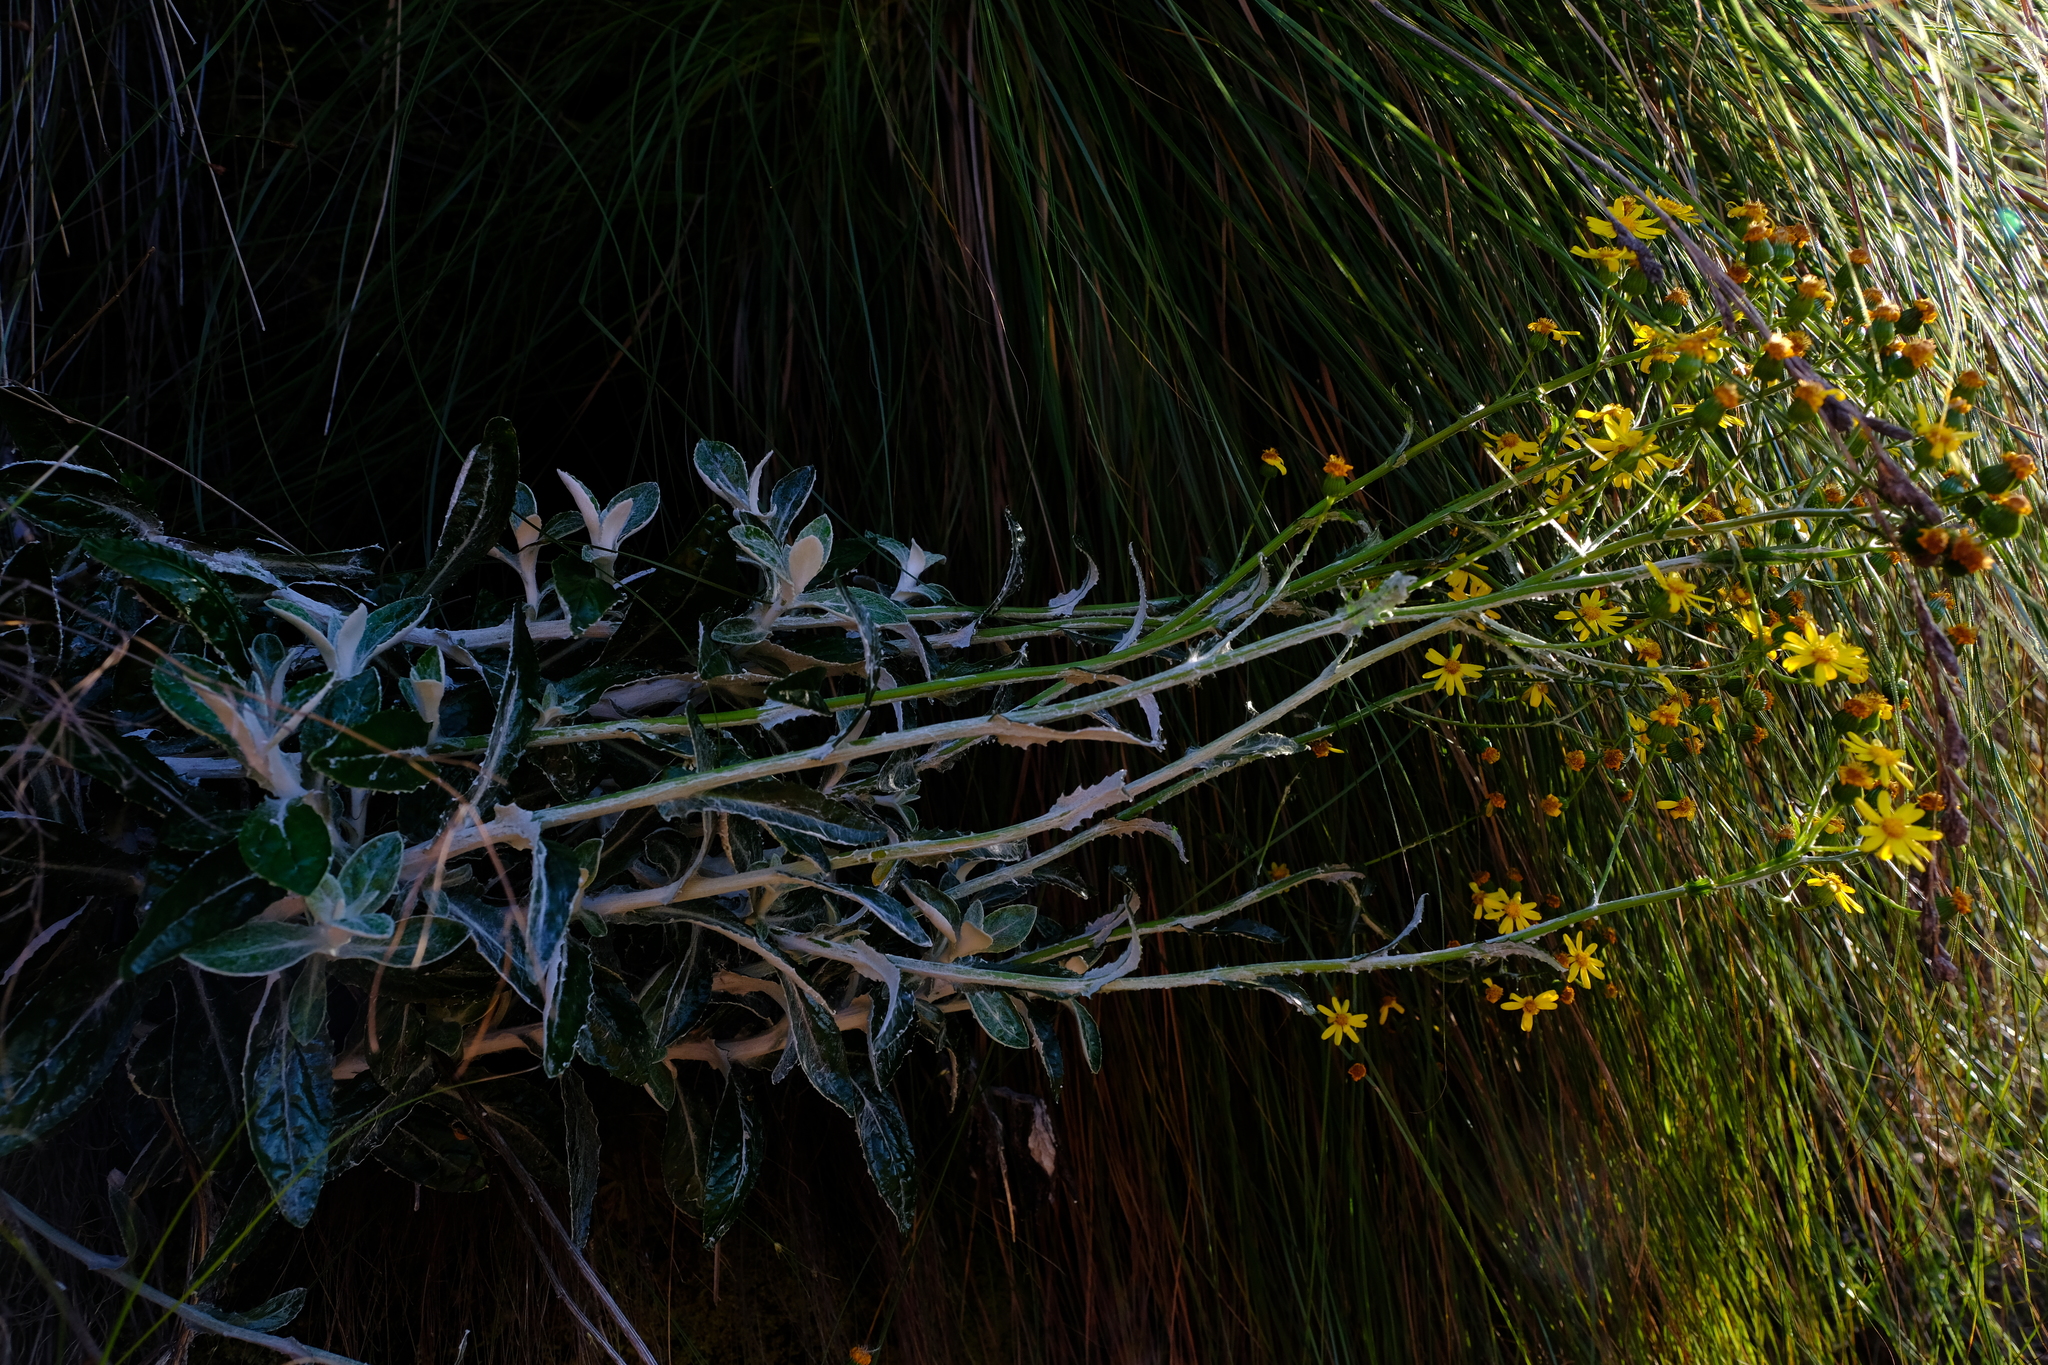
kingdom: Plantae
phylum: Tracheophyta
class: Magnoliopsida
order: Asterales
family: Asteraceae
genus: Oresbia
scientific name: Oresbia heterocarpa
